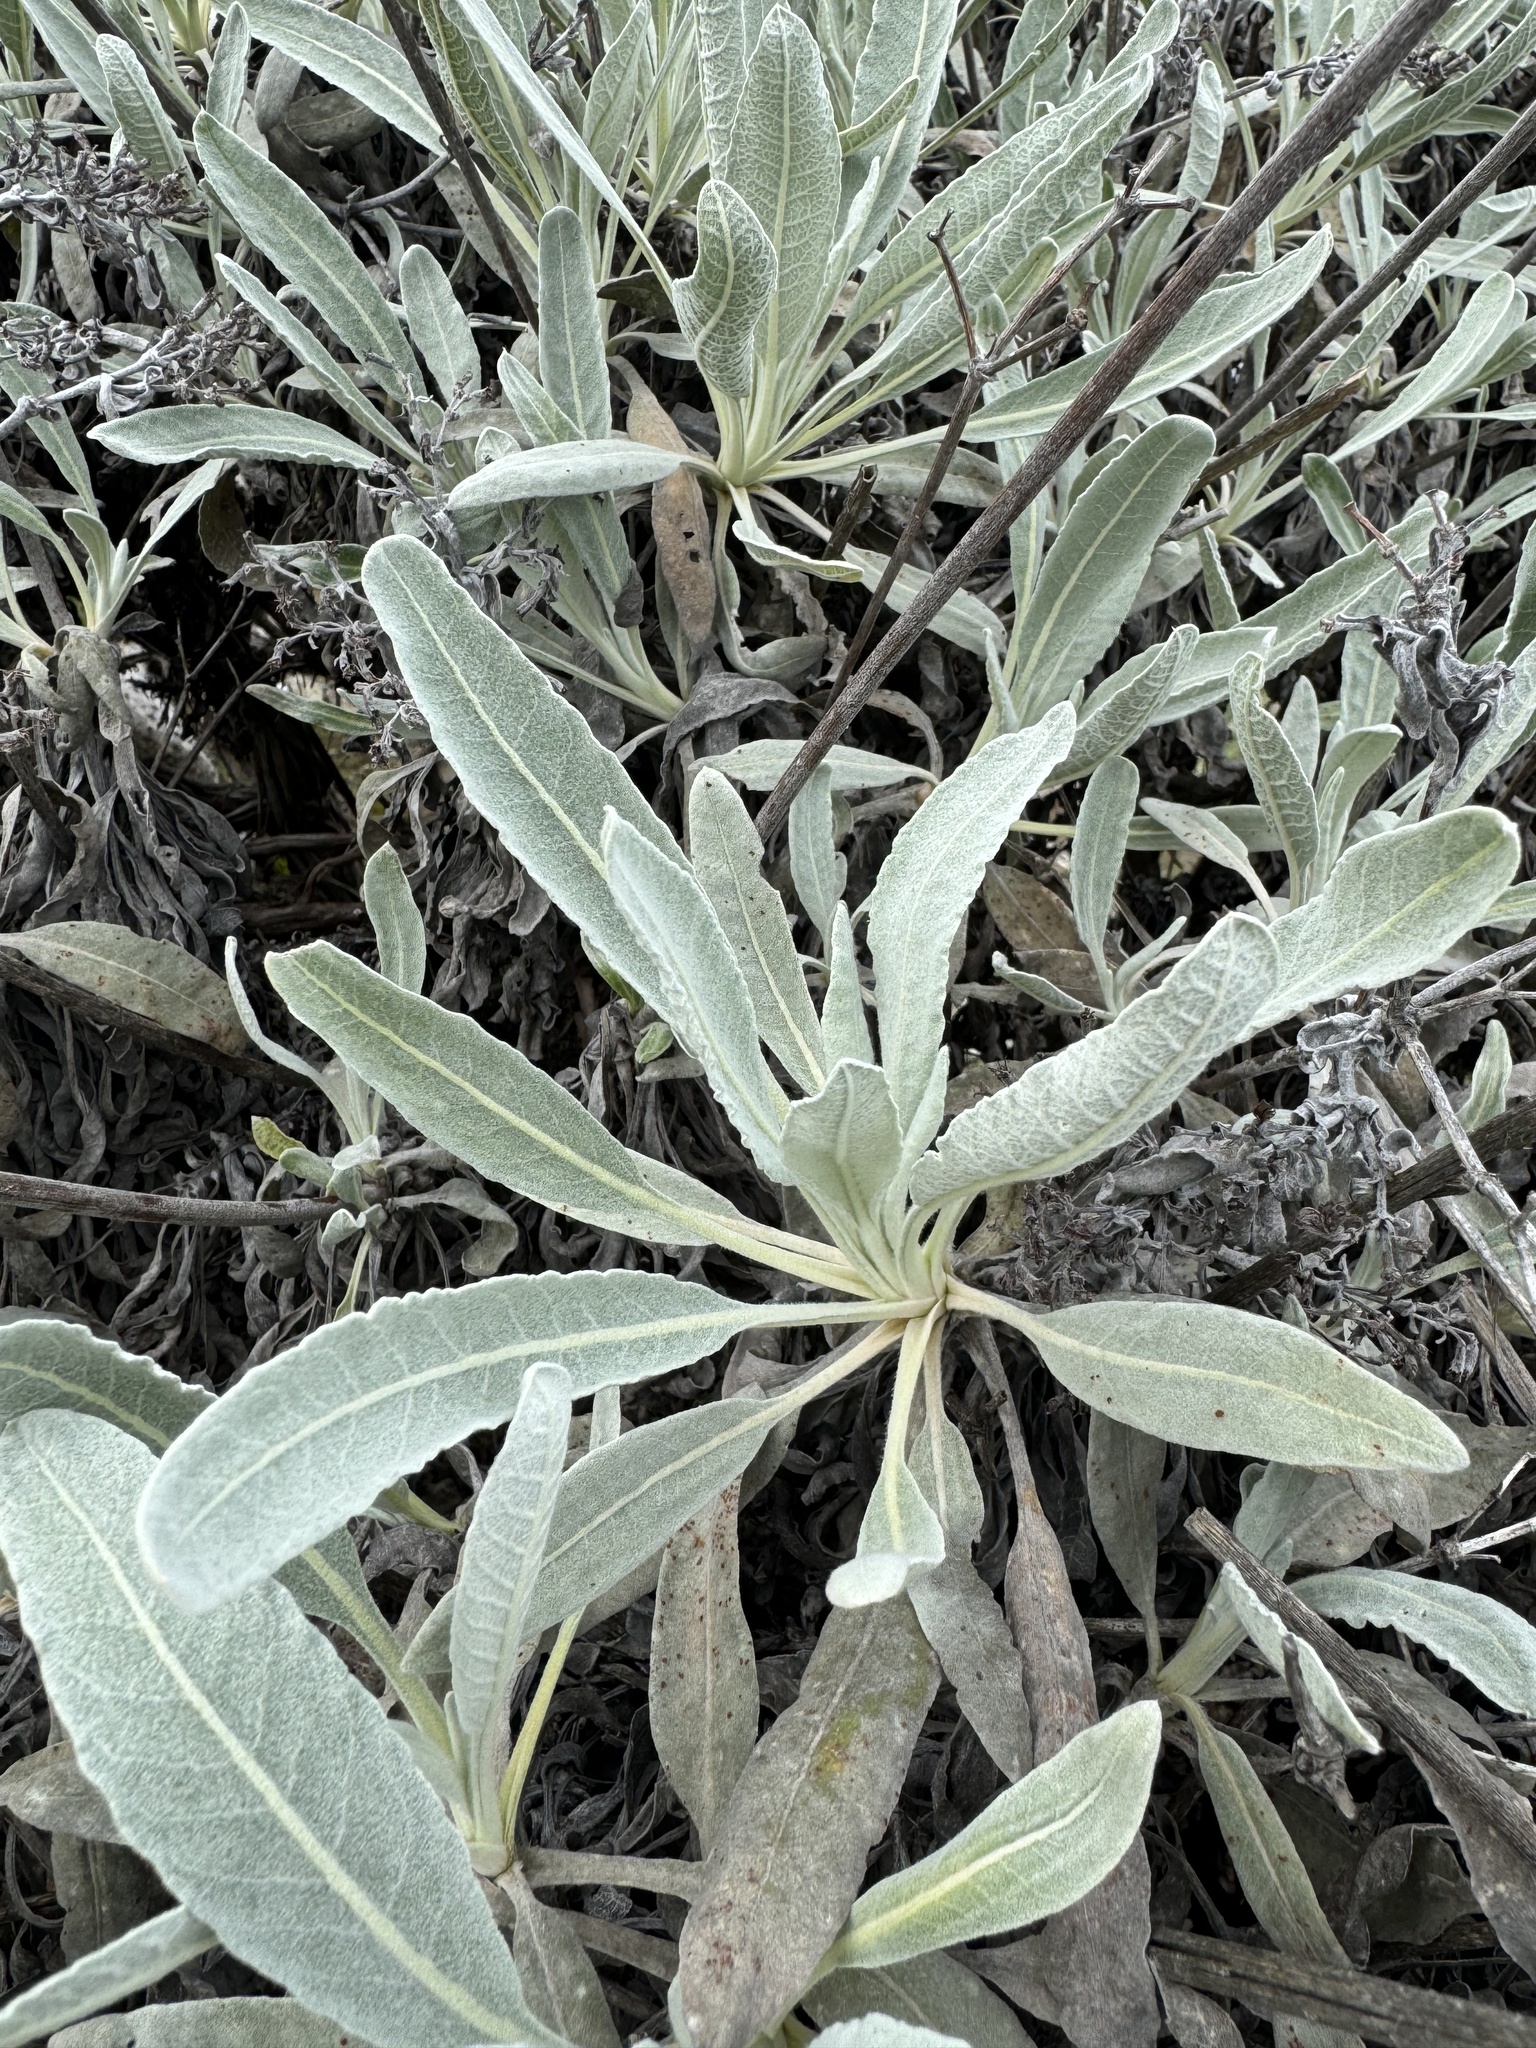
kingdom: Plantae
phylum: Tracheophyta
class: Magnoliopsida
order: Caryophyllales
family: Polygonaceae
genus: Eriogonum
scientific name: Eriogonum giganteum
